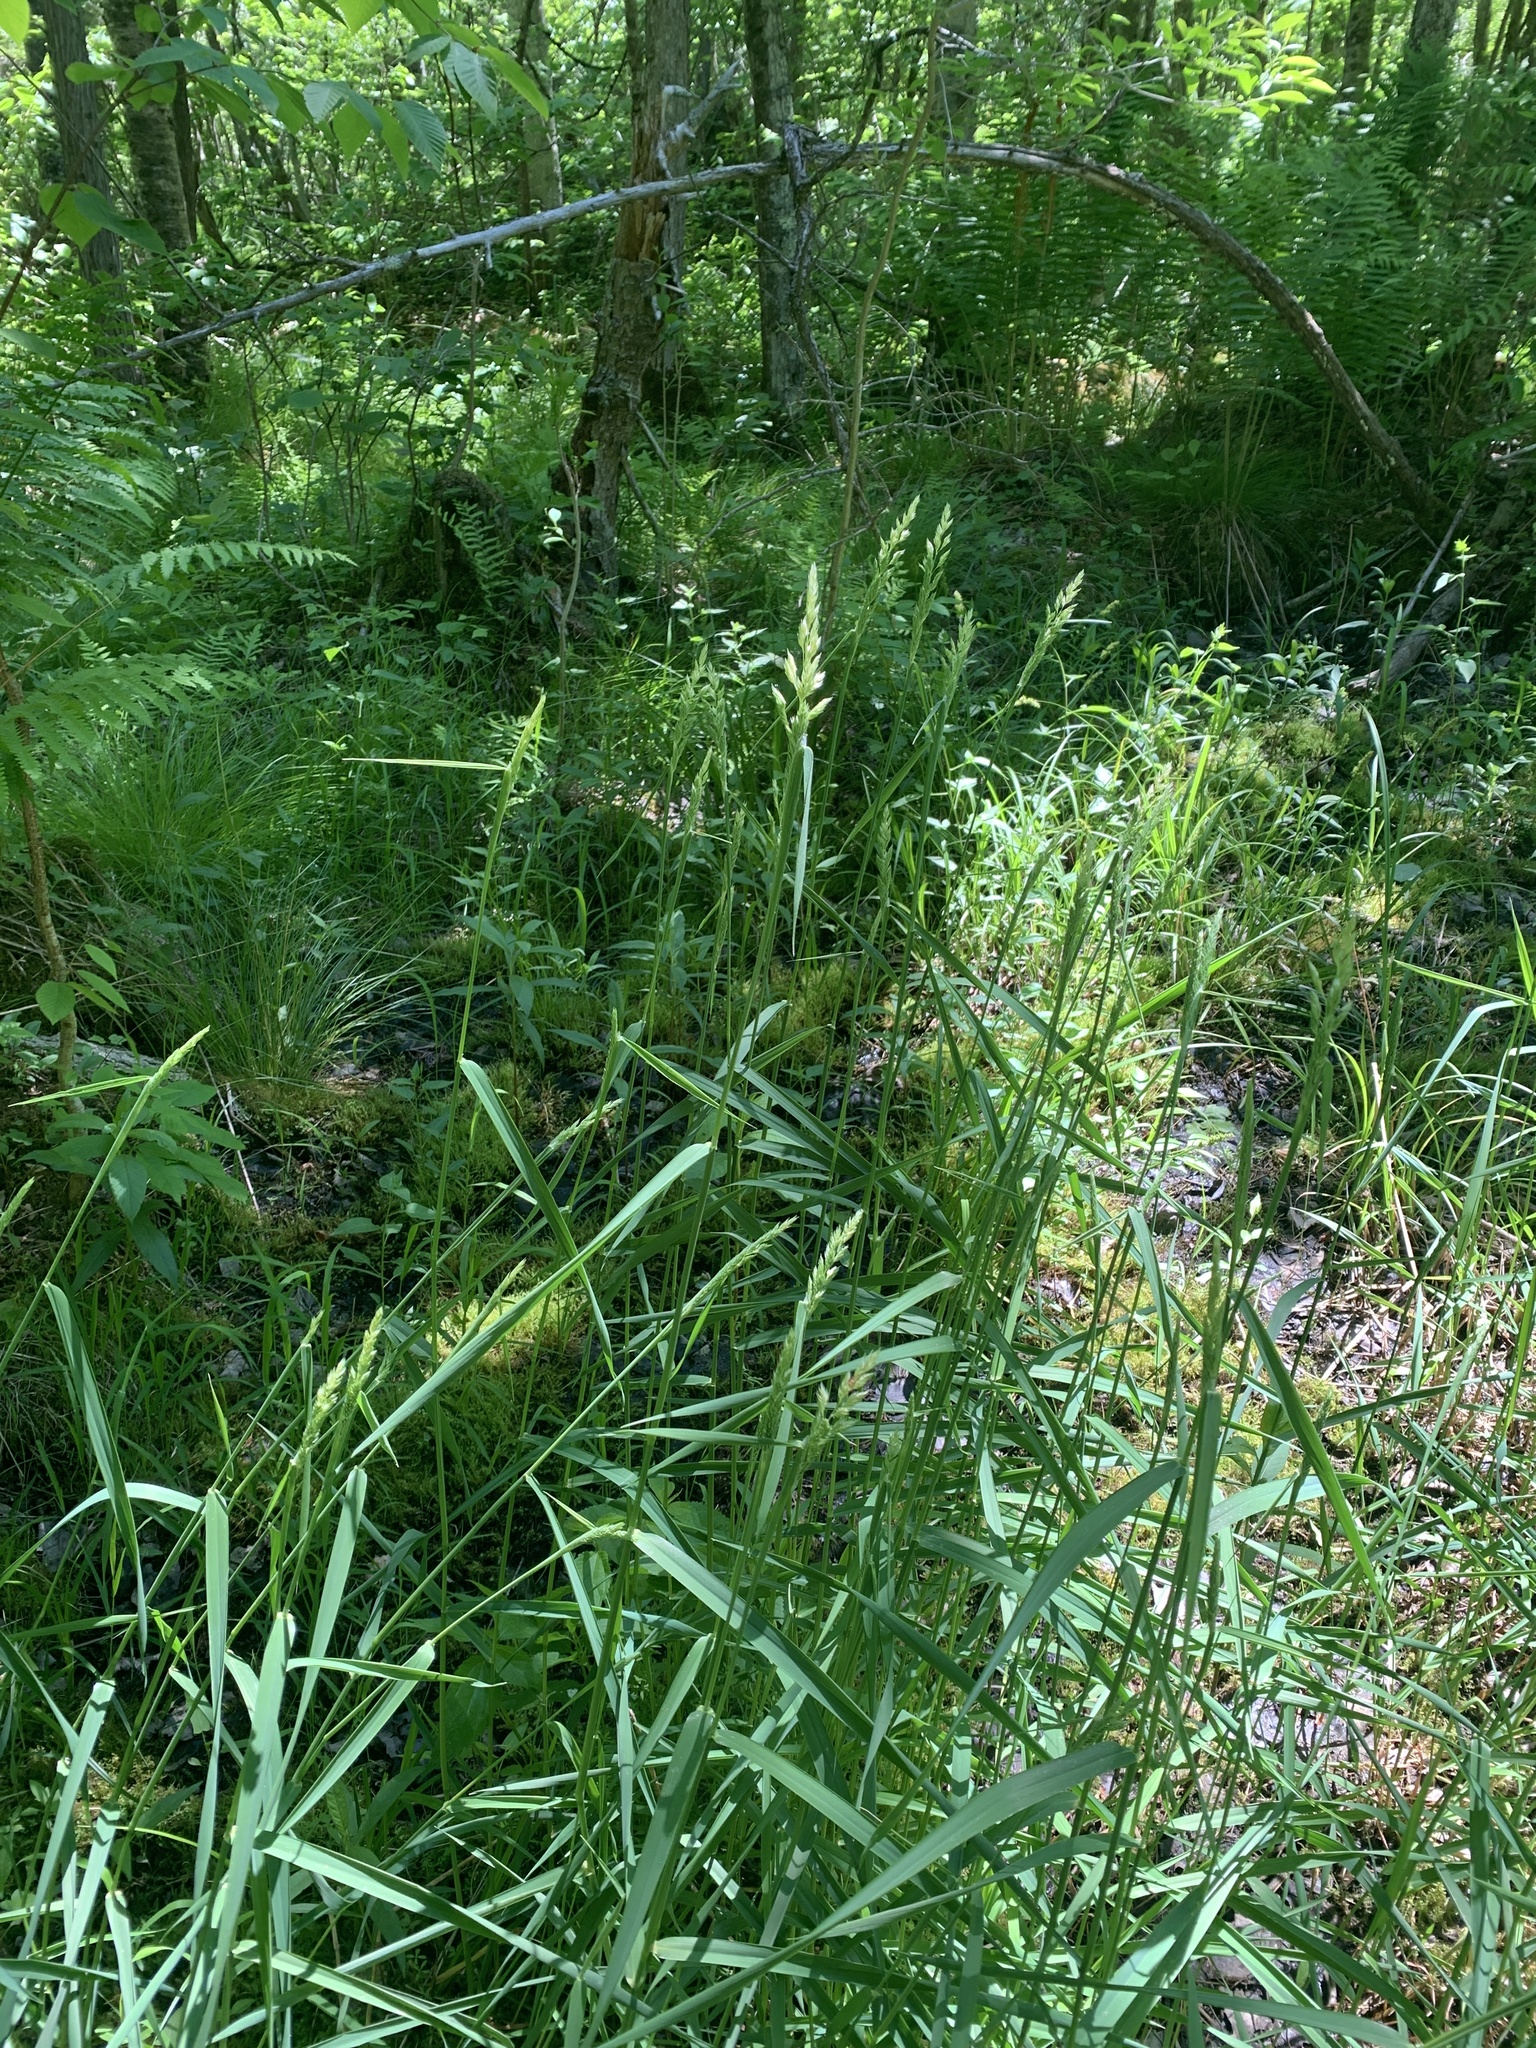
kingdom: Plantae
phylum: Tracheophyta
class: Liliopsida
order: Poales
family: Poaceae
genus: Phalaris
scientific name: Phalaris arundinacea
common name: Reed canary-grass
